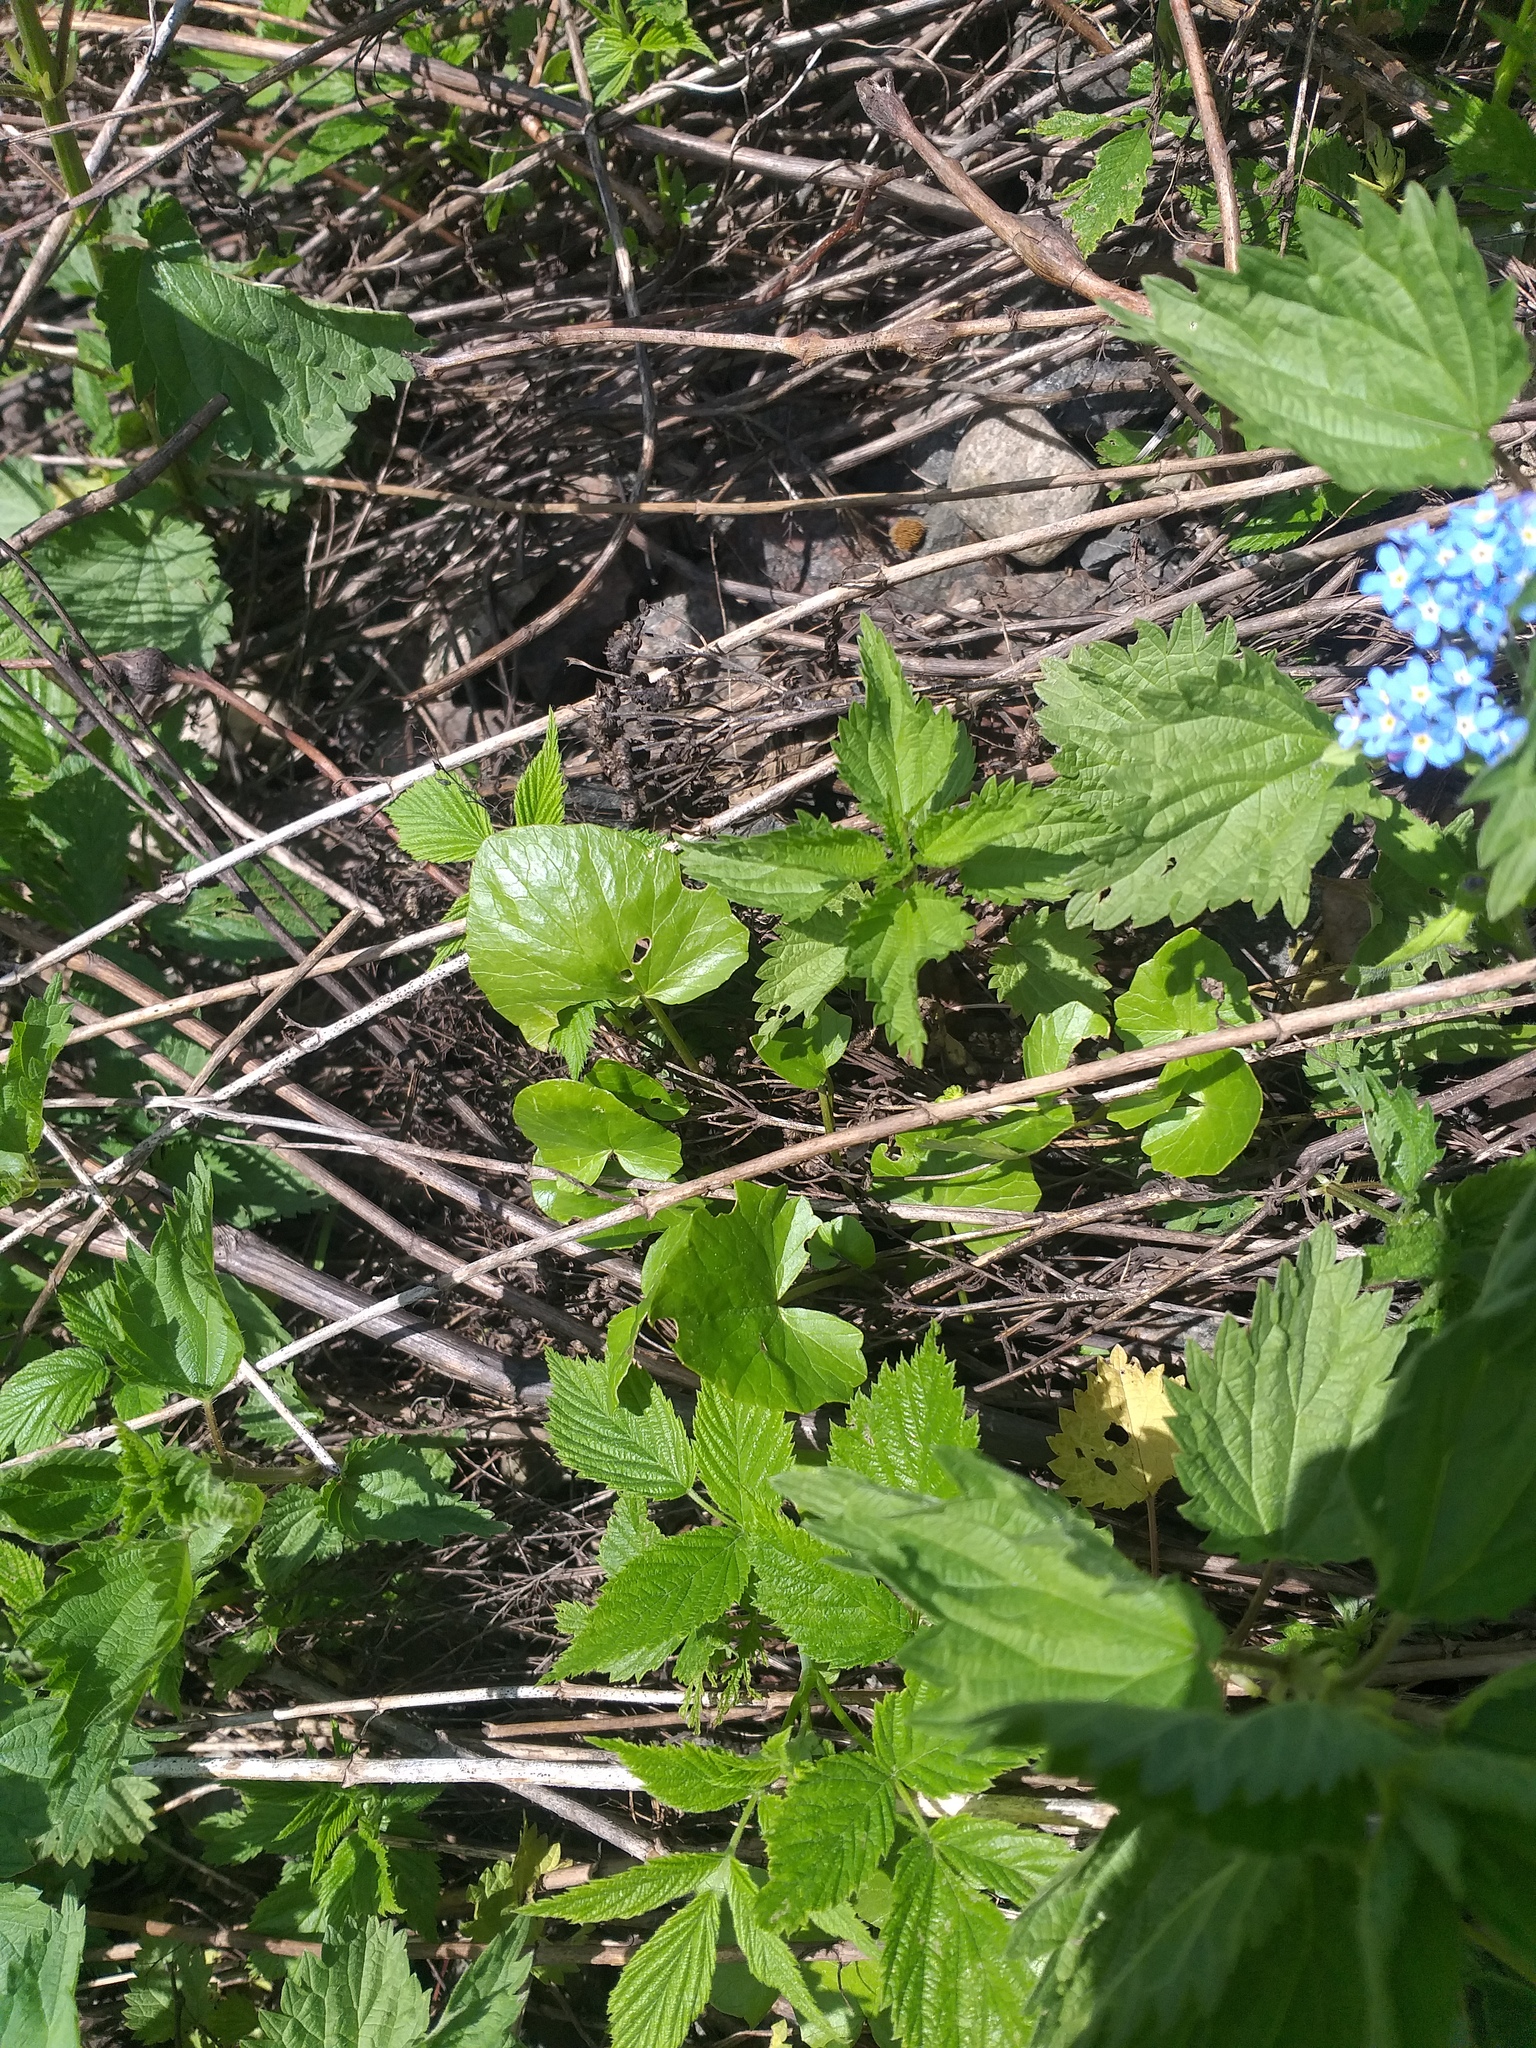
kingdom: Plantae
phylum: Tracheophyta
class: Magnoliopsida
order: Ranunculales
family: Ranunculaceae
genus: Ficaria
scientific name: Ficaria verna
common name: Lesser celandine
